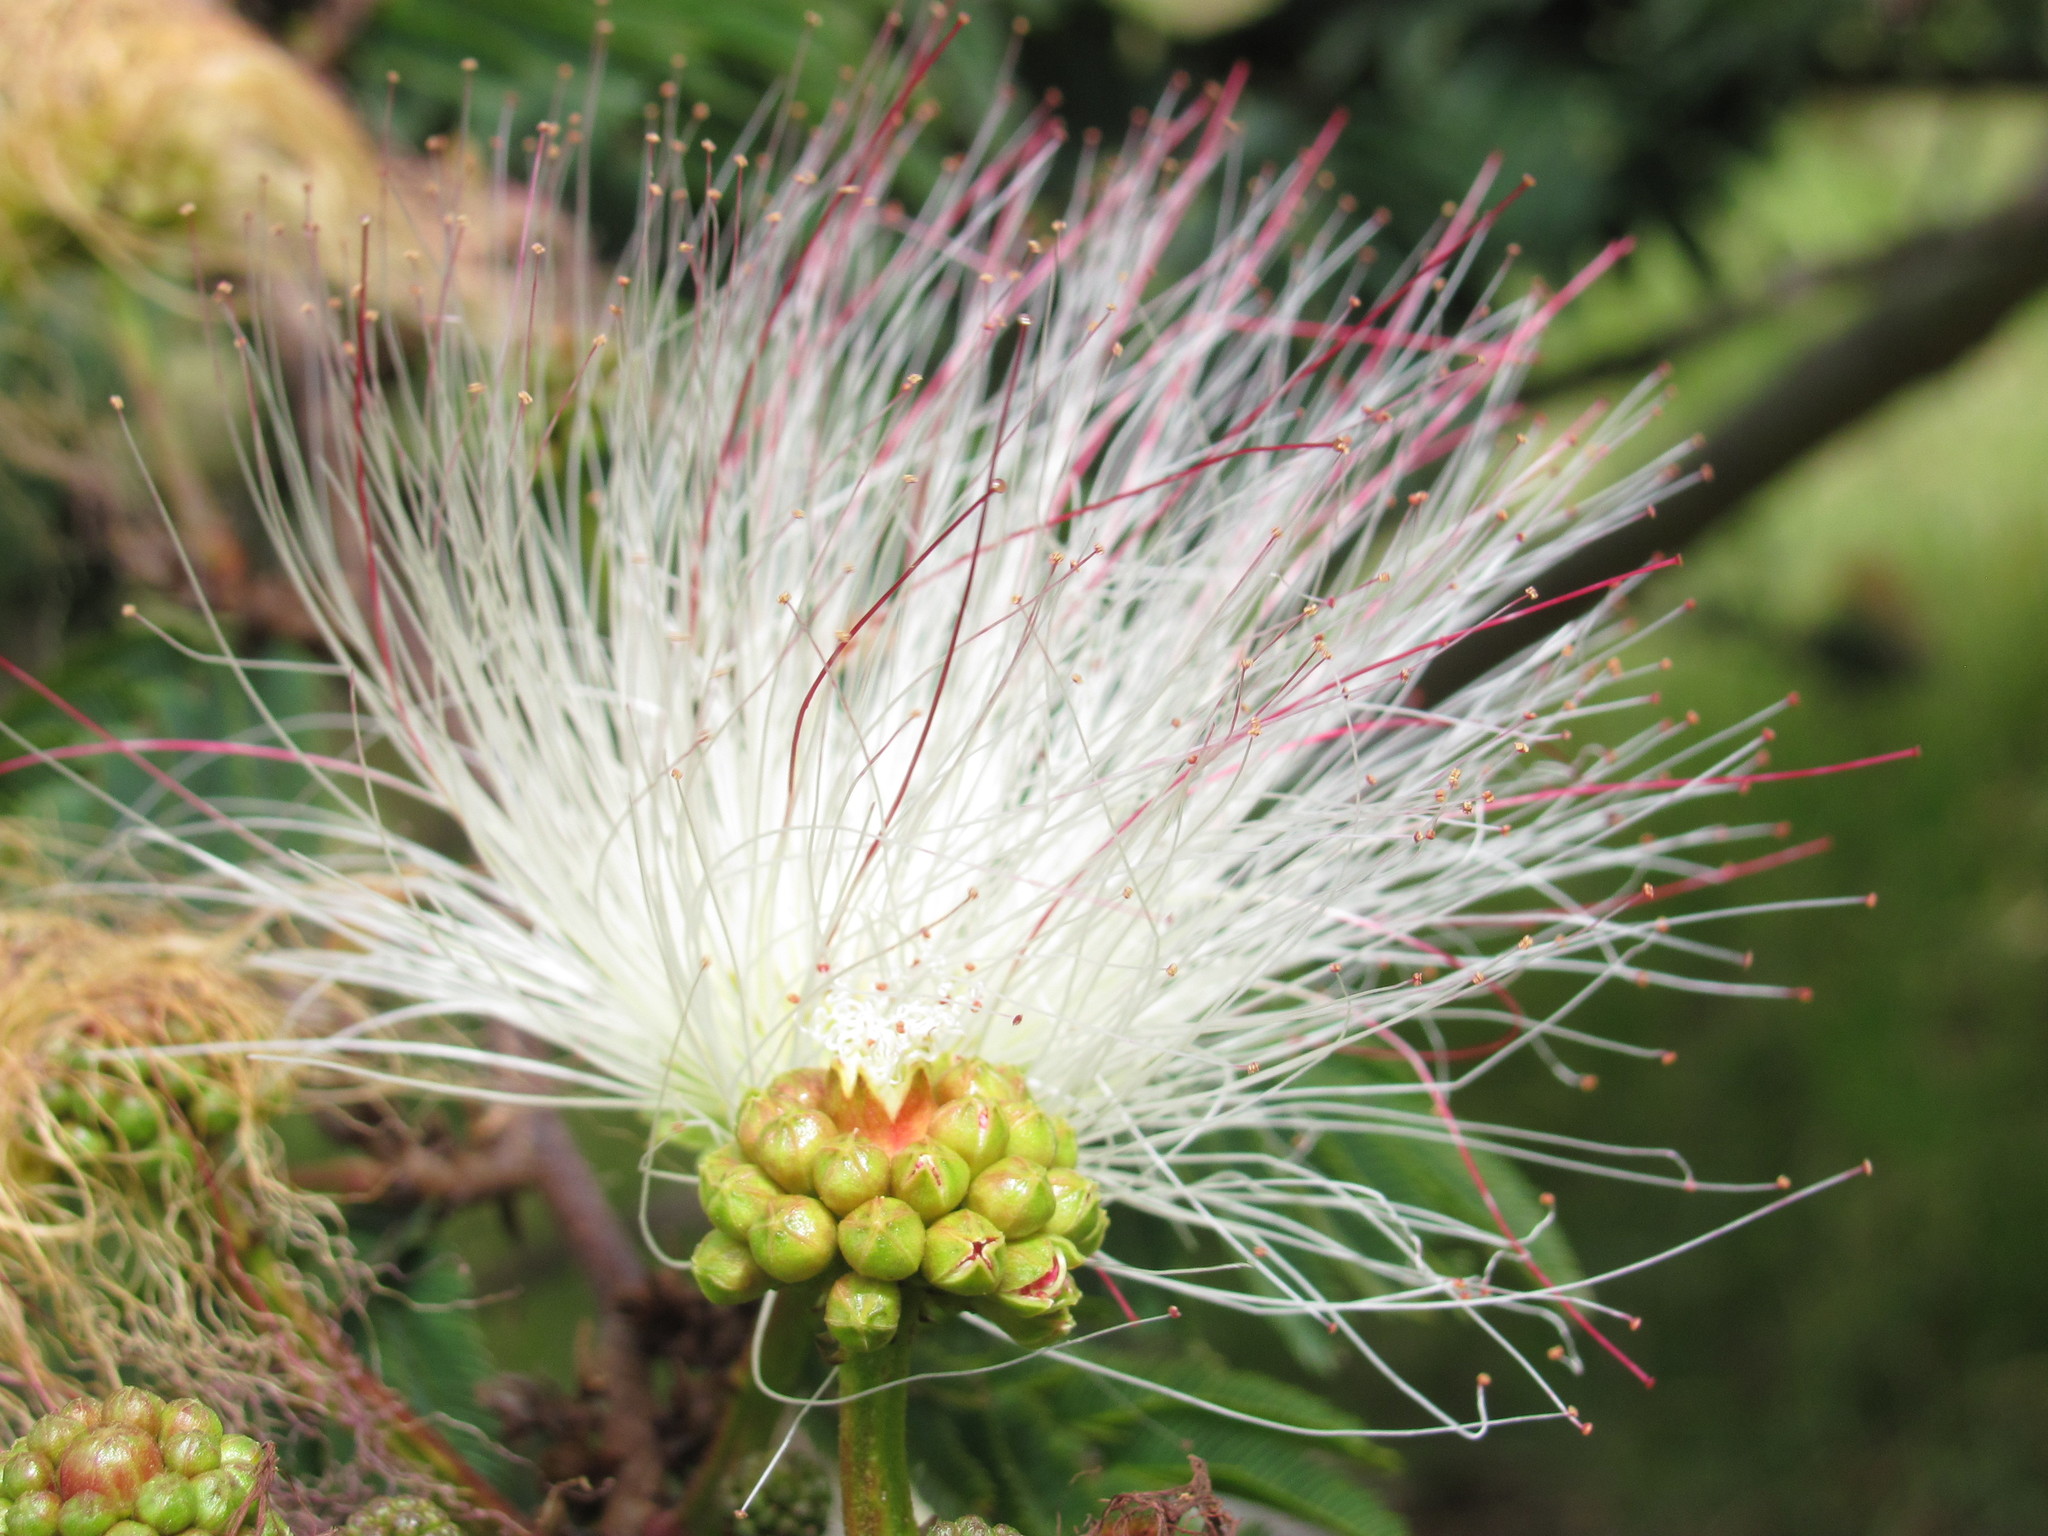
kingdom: Plantae
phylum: Tracheophyta
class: Magnoliopsida
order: Fabales
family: Fabaceae
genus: Calliandra
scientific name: Calliandra pittieri
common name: Carbonero de avenidas
